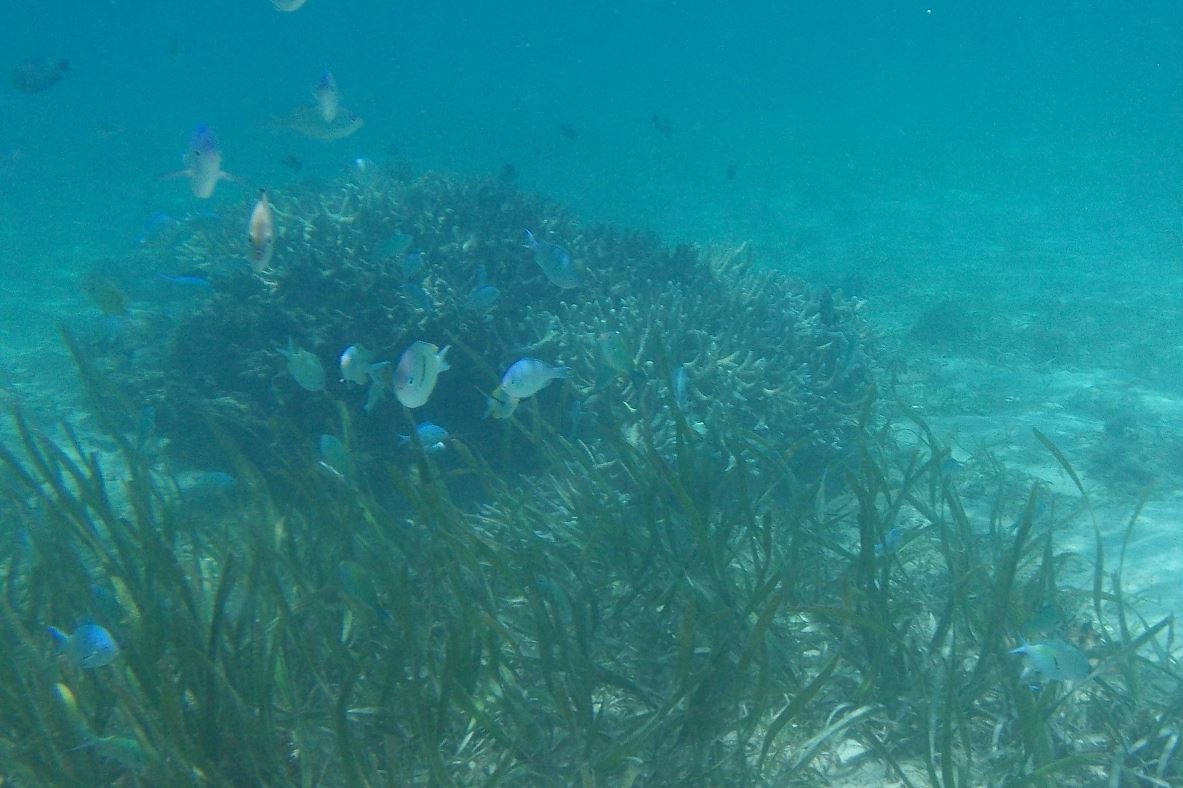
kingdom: Animalia
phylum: Chordata
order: Perciformes
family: Pomacentridae
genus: Chromis
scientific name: Chromis viridis
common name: Blue-green chromis
